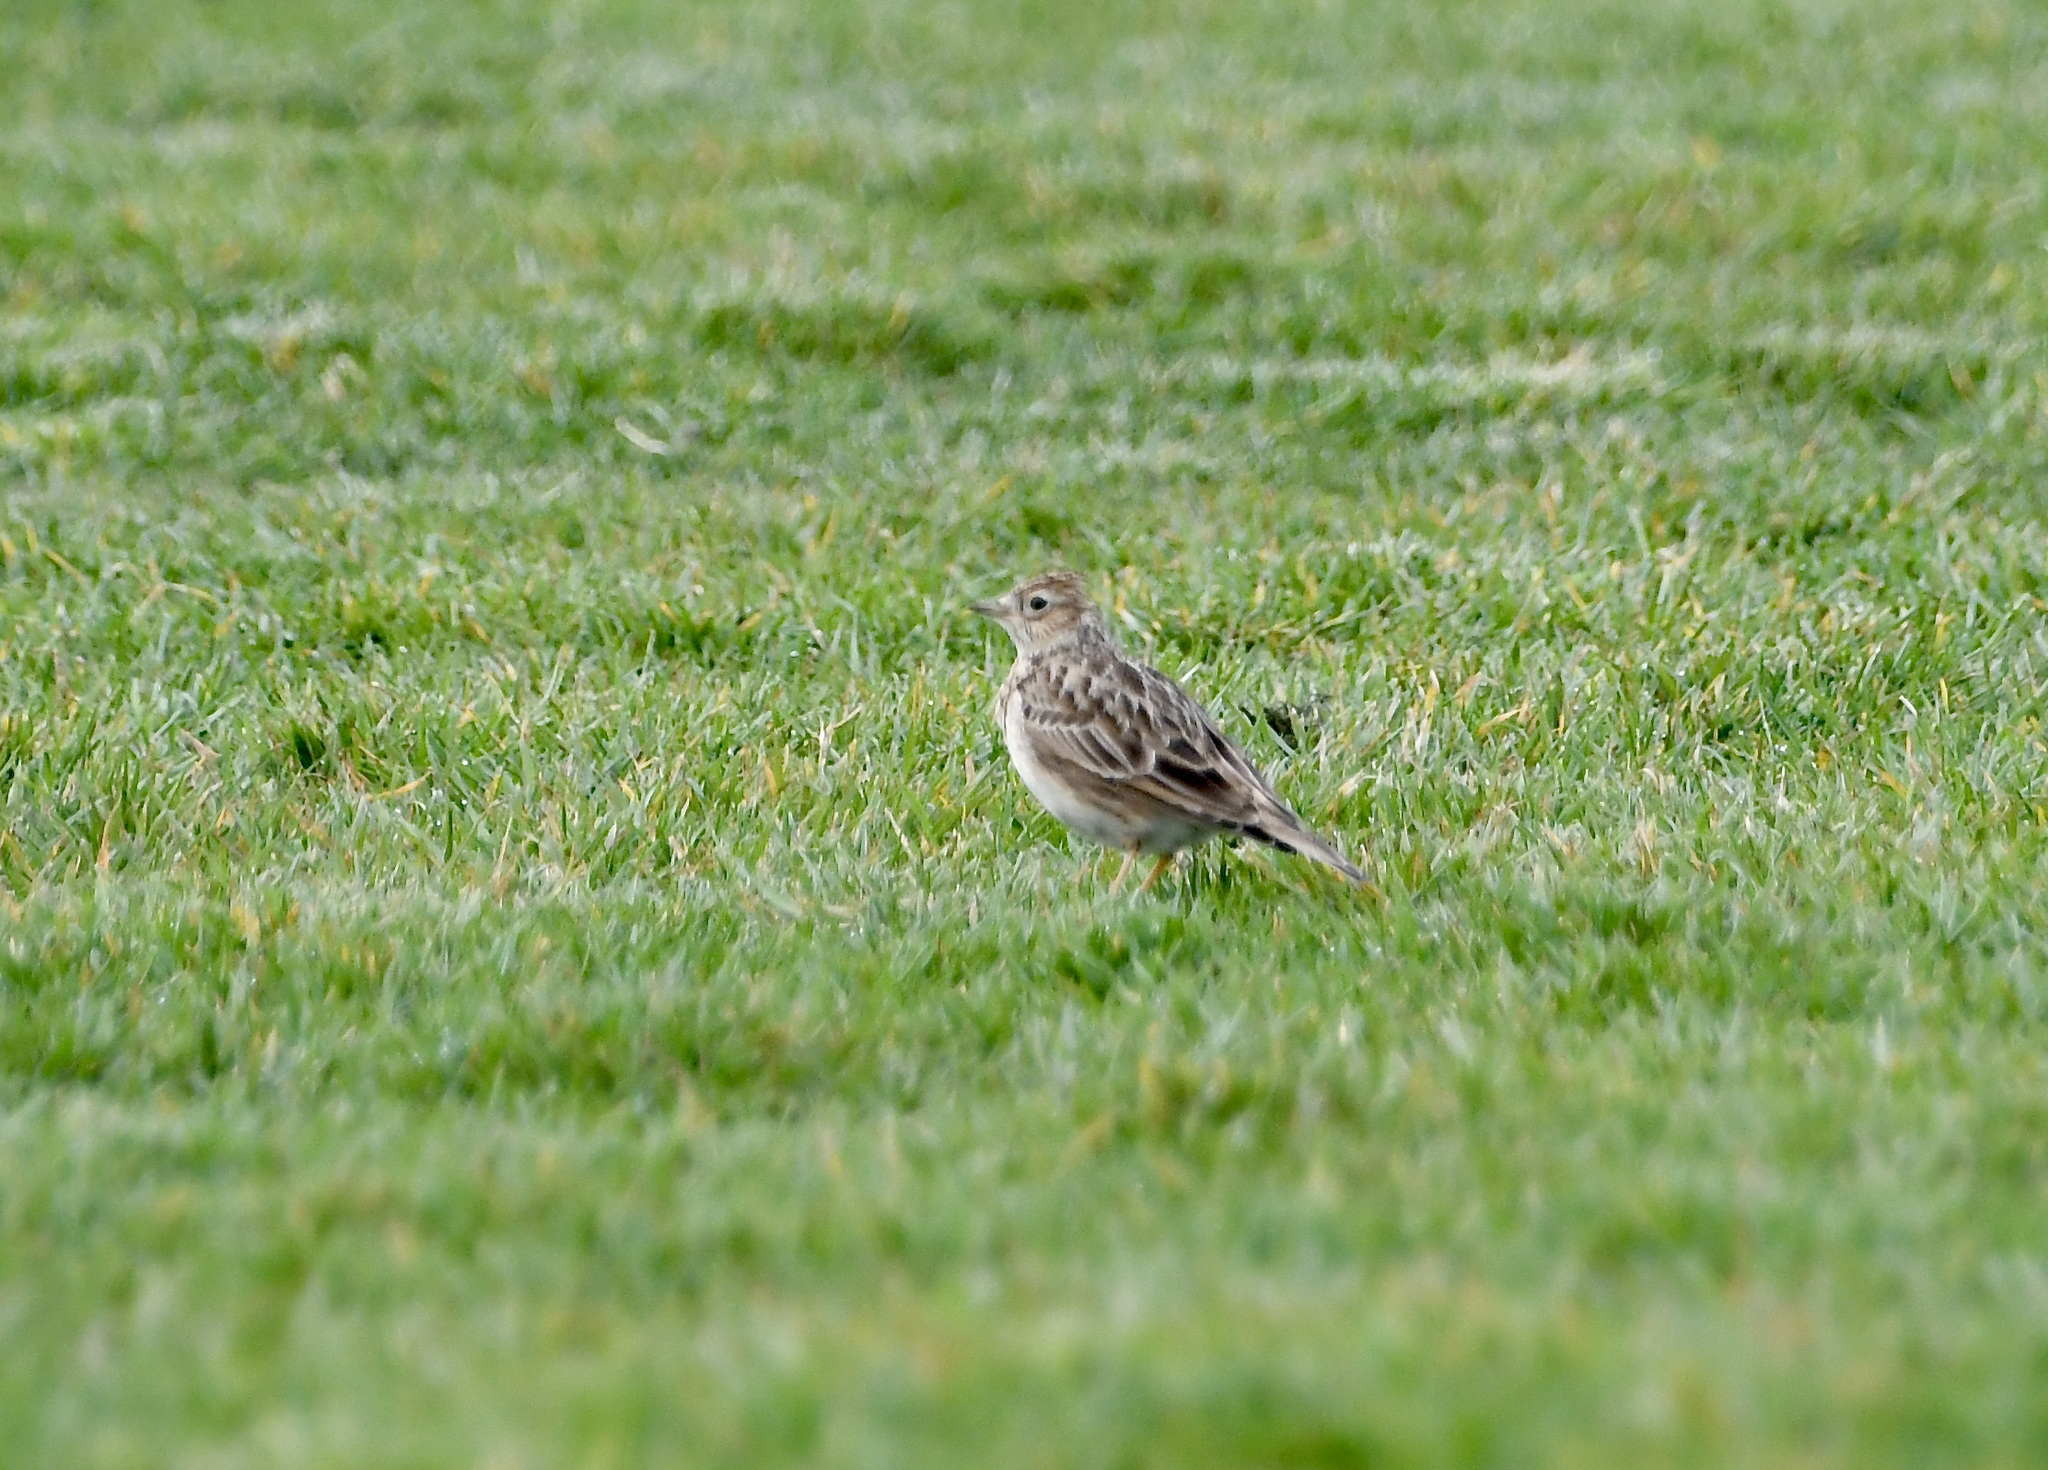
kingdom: Animalia
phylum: Chordata
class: Aves
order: Passeriformes
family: Alaudidae
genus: Alauda
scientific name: Alauda arvensis
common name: Eurasian skylark
